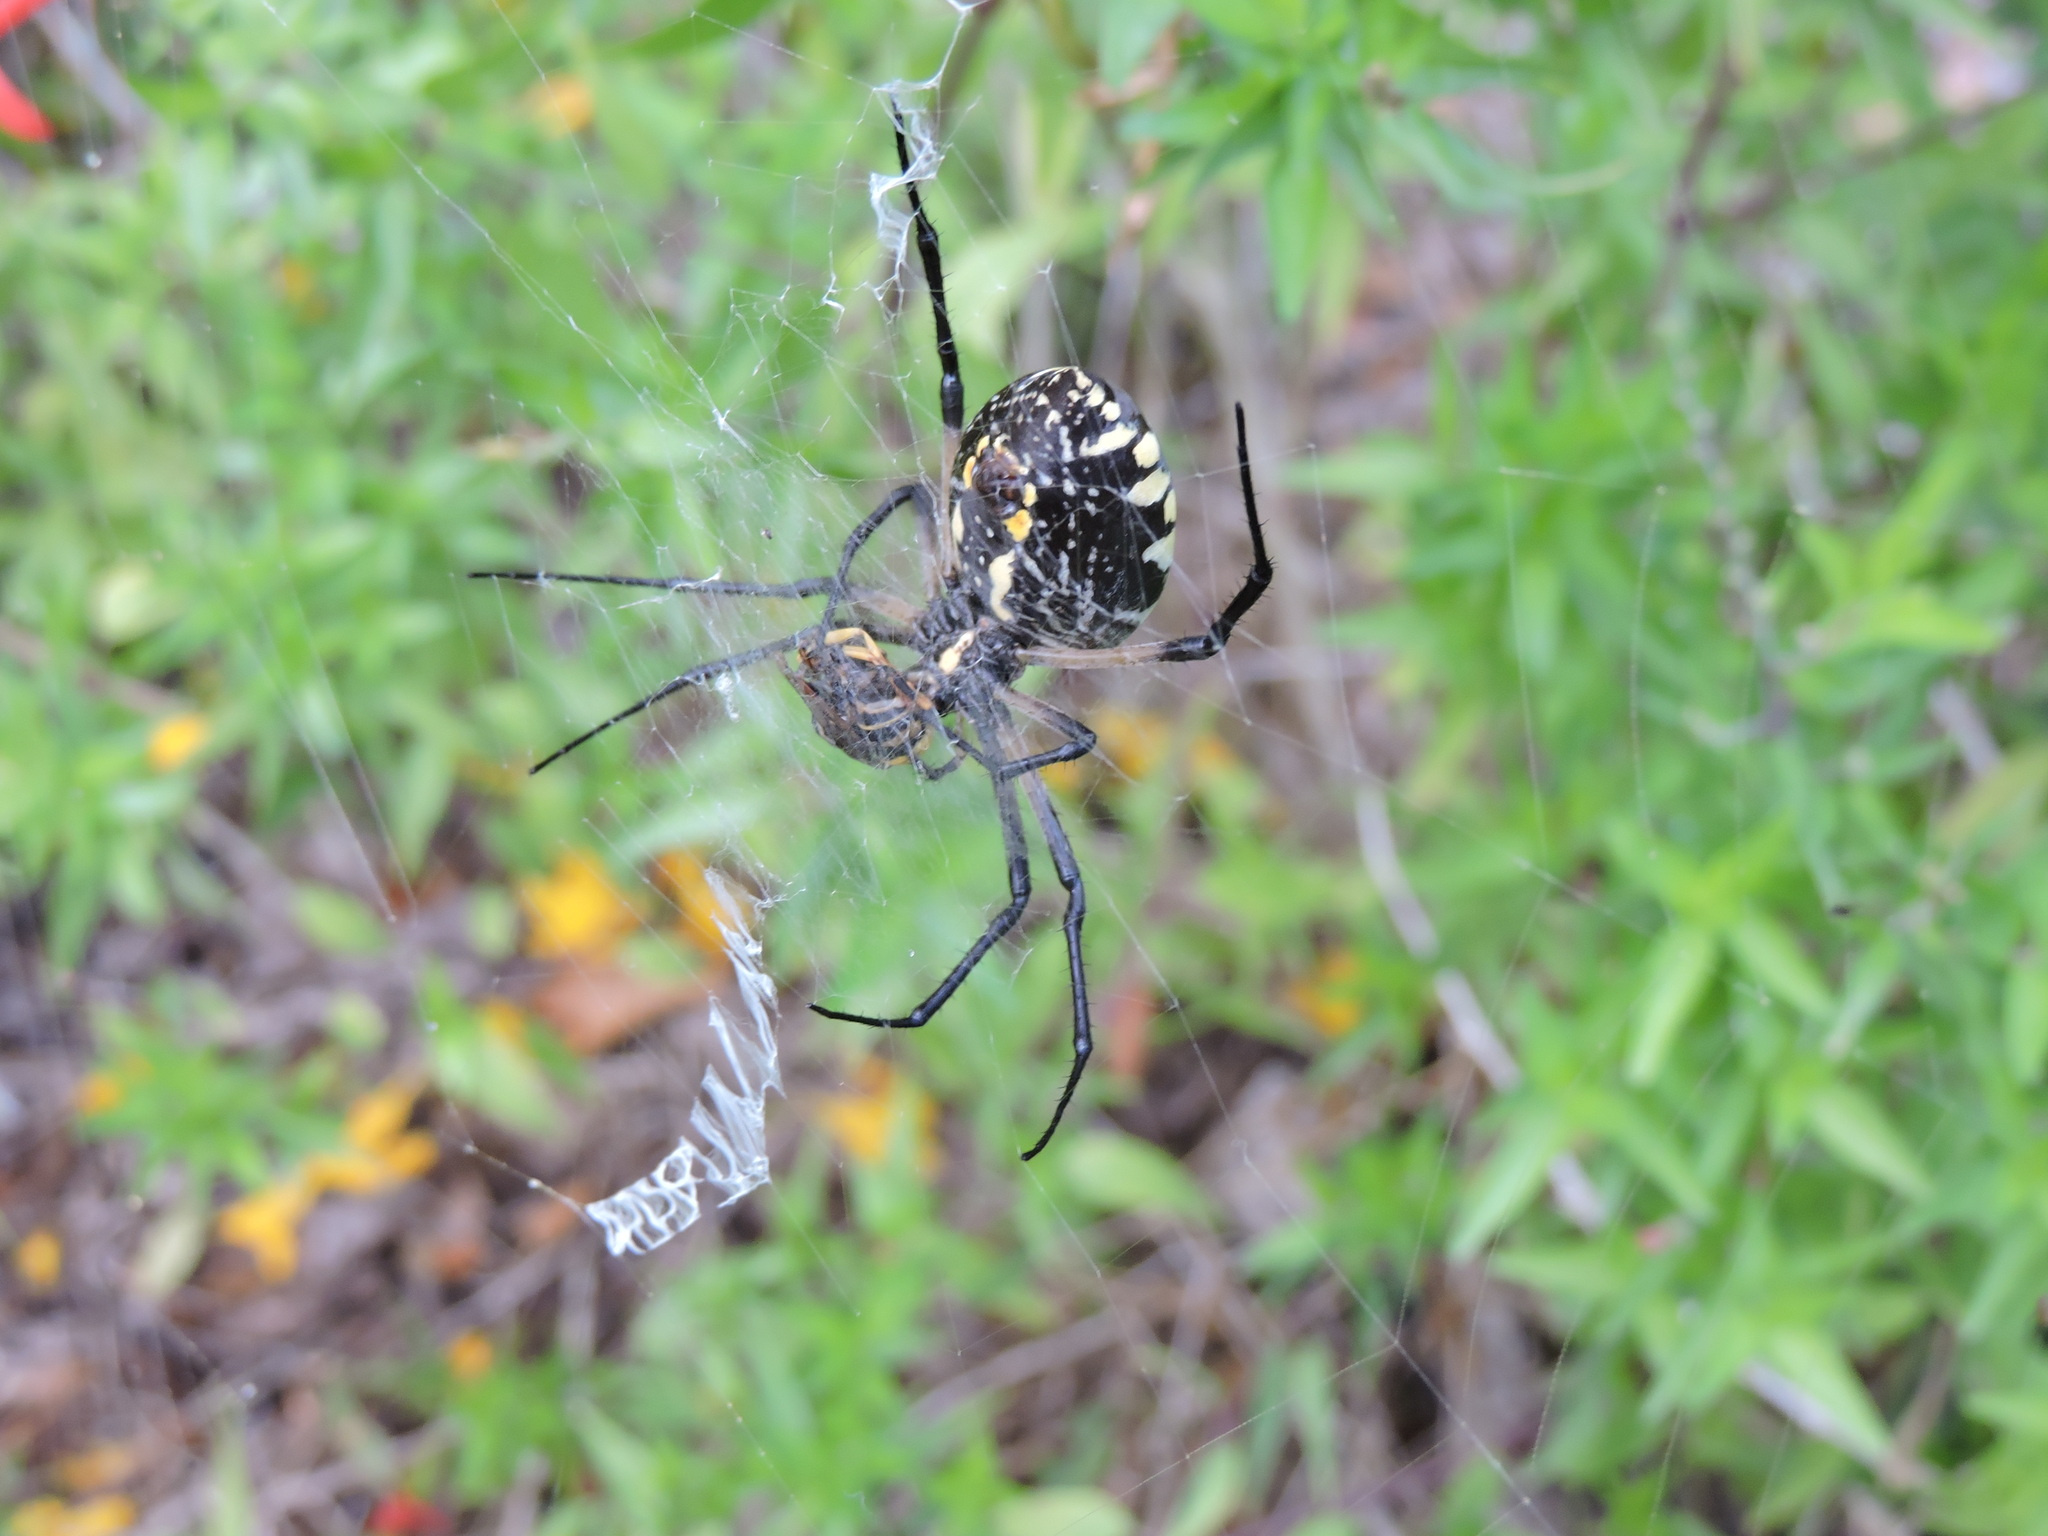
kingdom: Animalia
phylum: Arthropoda
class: Arachnida
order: Araneae
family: Araneidae
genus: Argiope
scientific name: Argiope aurantia
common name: Orb weavers
